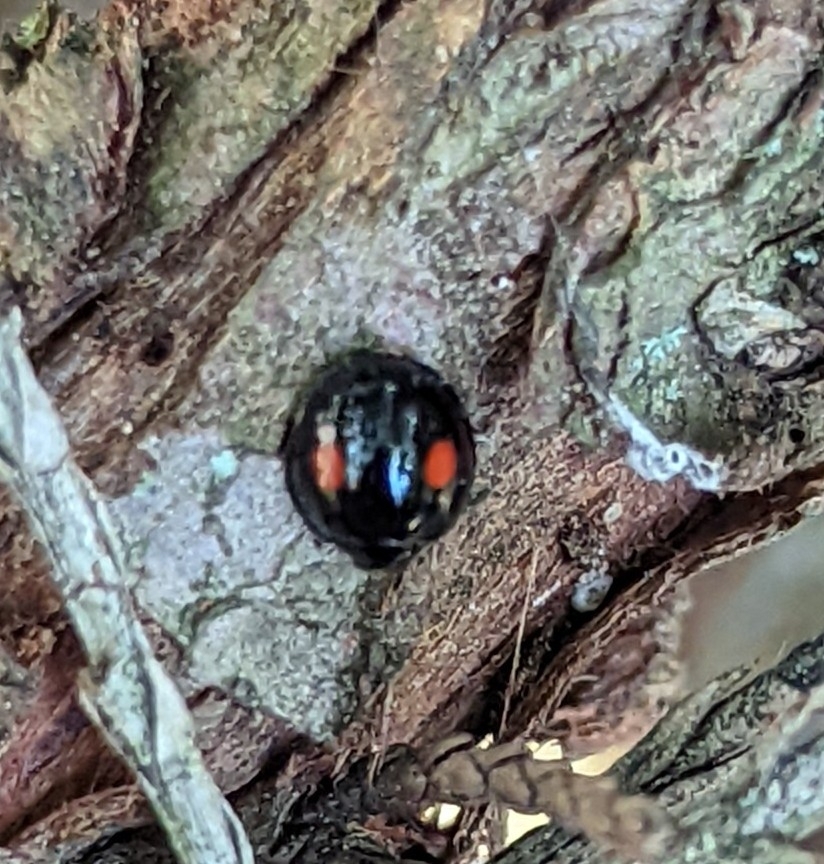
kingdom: Animalia
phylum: Arthropoda
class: Insecta
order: Coleoptera
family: Coccinellidae
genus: Chilocorus
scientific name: Chilocorus stigma
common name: Twicestabbed lady beetle
